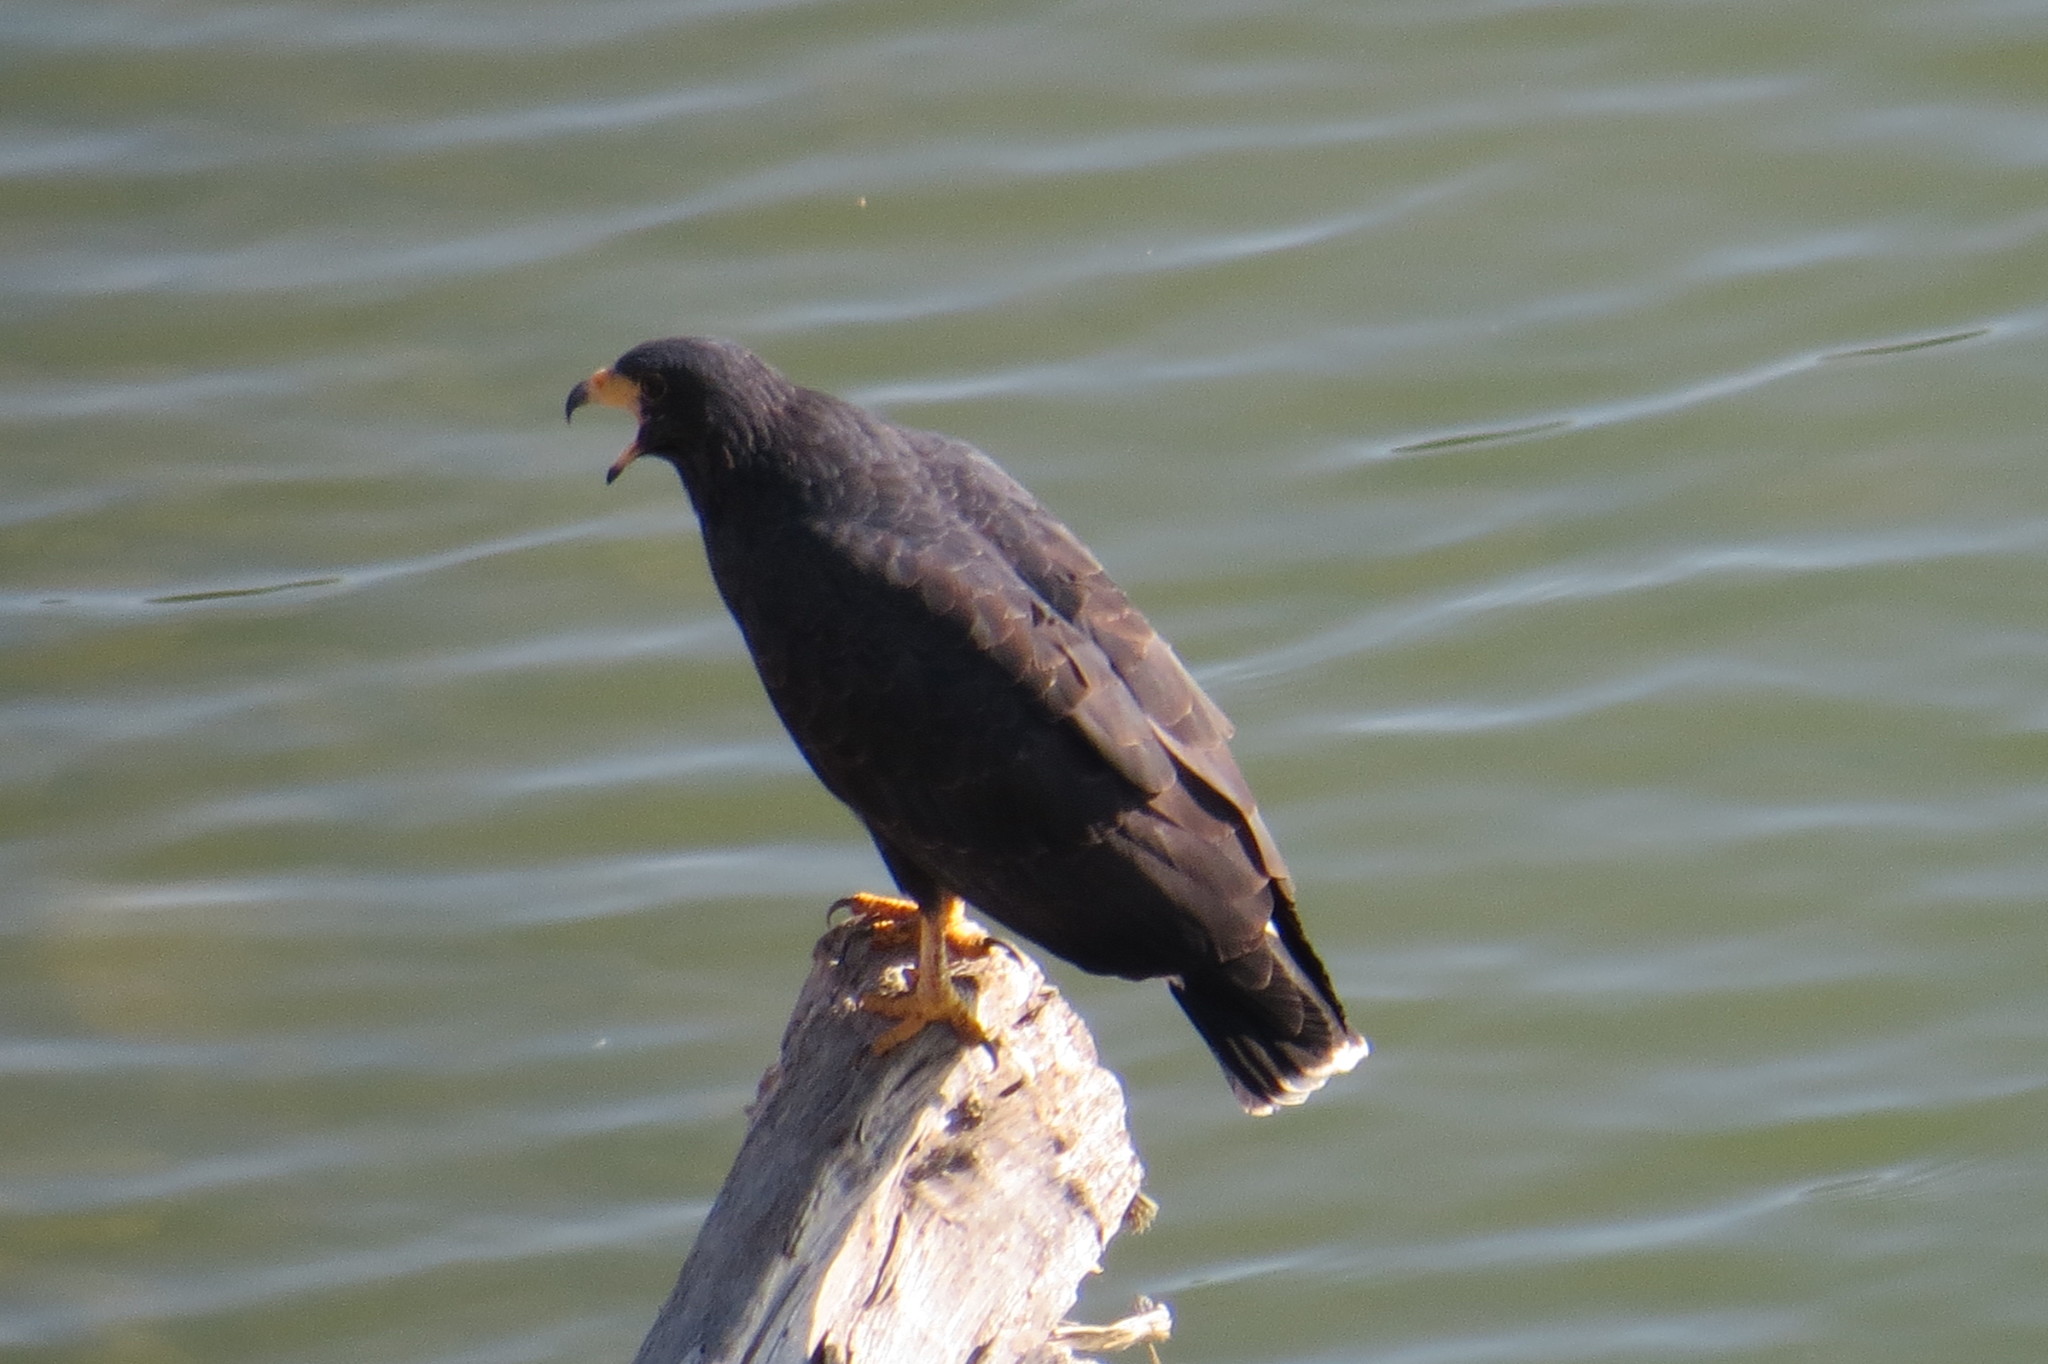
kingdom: Animalia
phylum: Chordata
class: Aves
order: Accipitriformes
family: Accipitridae
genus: Buteogallus
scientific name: Buteogallus anthracinus
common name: Common black hawk
